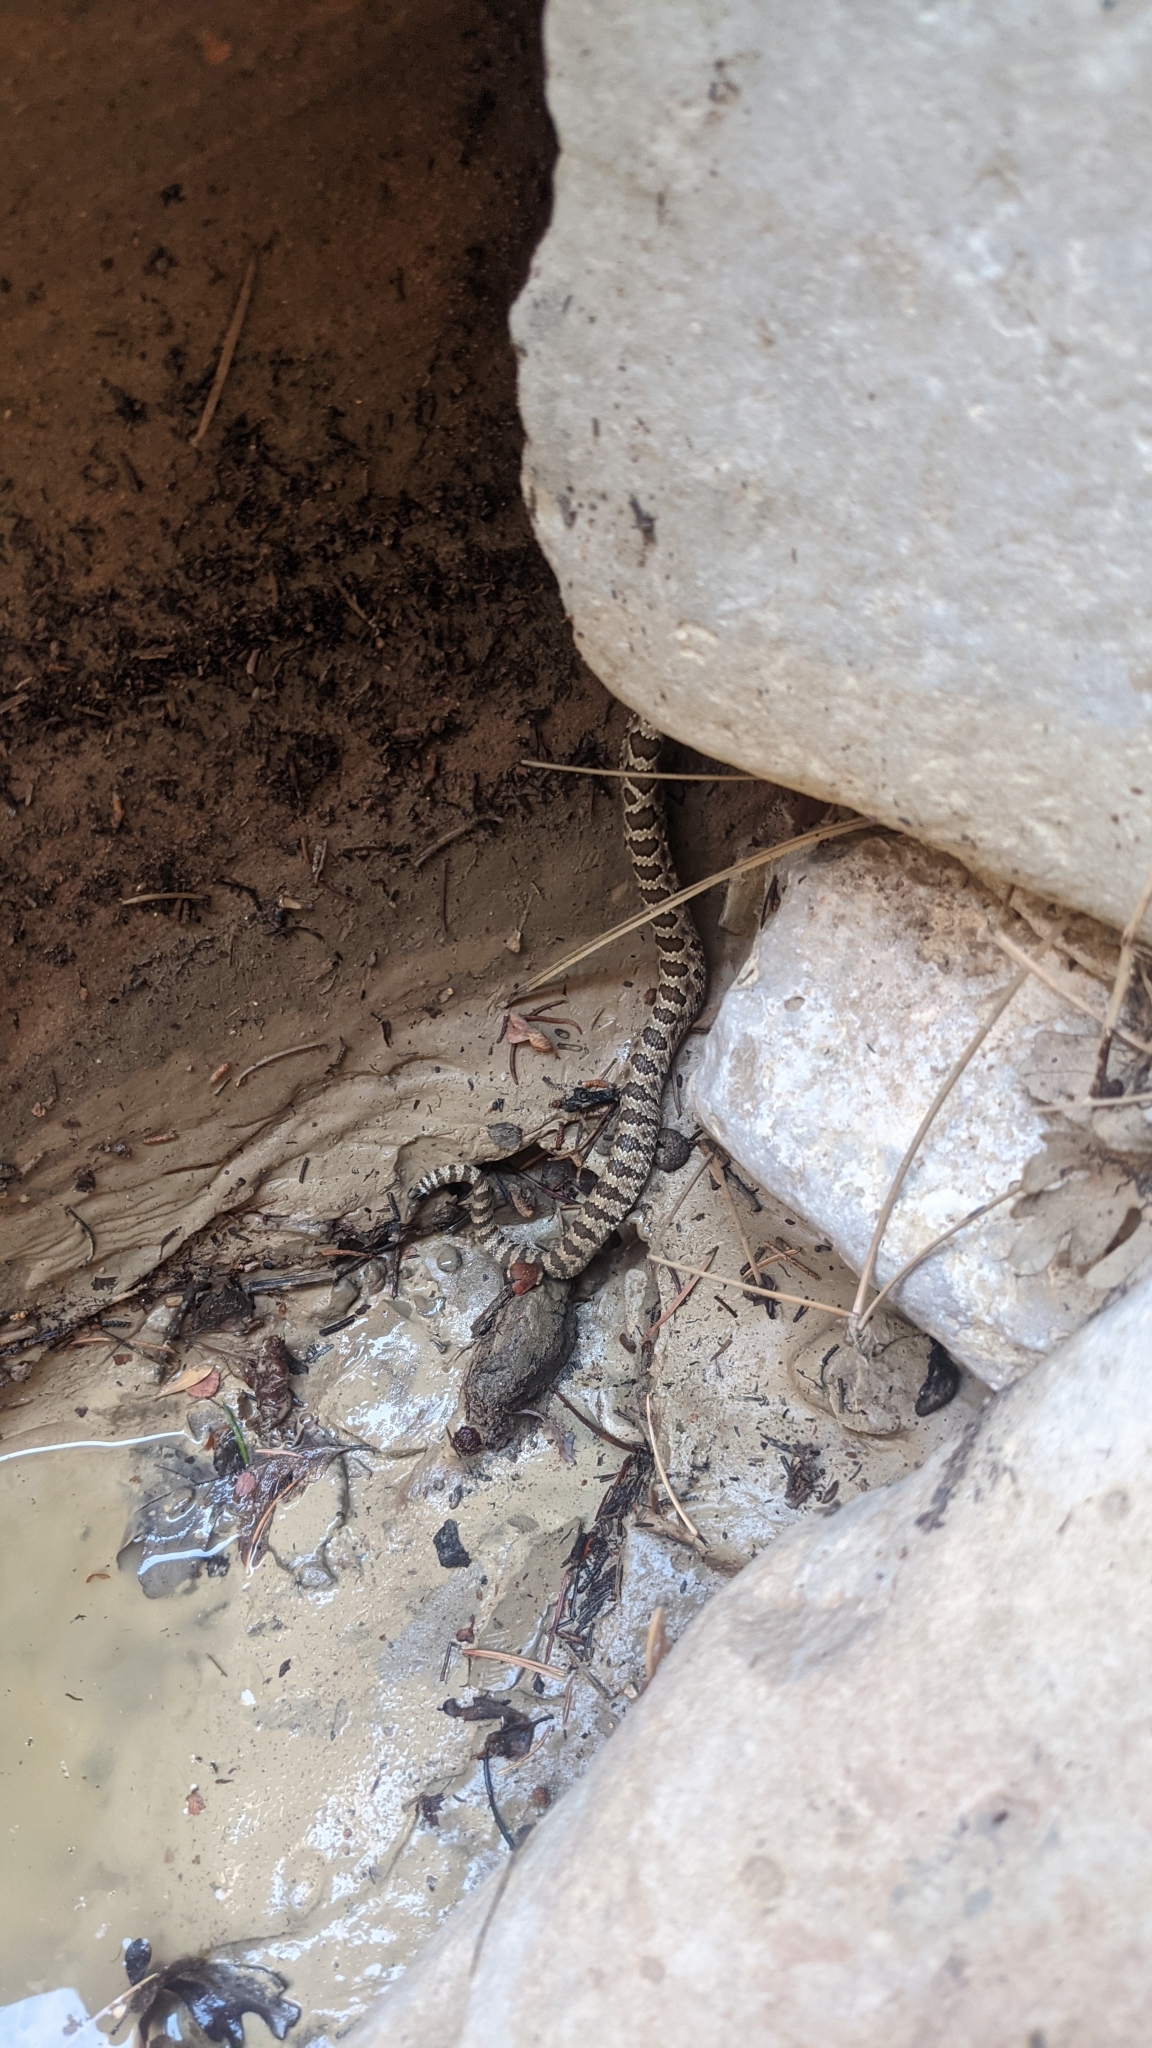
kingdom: Animalia
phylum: Chordata
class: Squamata
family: Viperidae
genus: Crotalus
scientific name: Crotalus oreganus
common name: Abyssus
